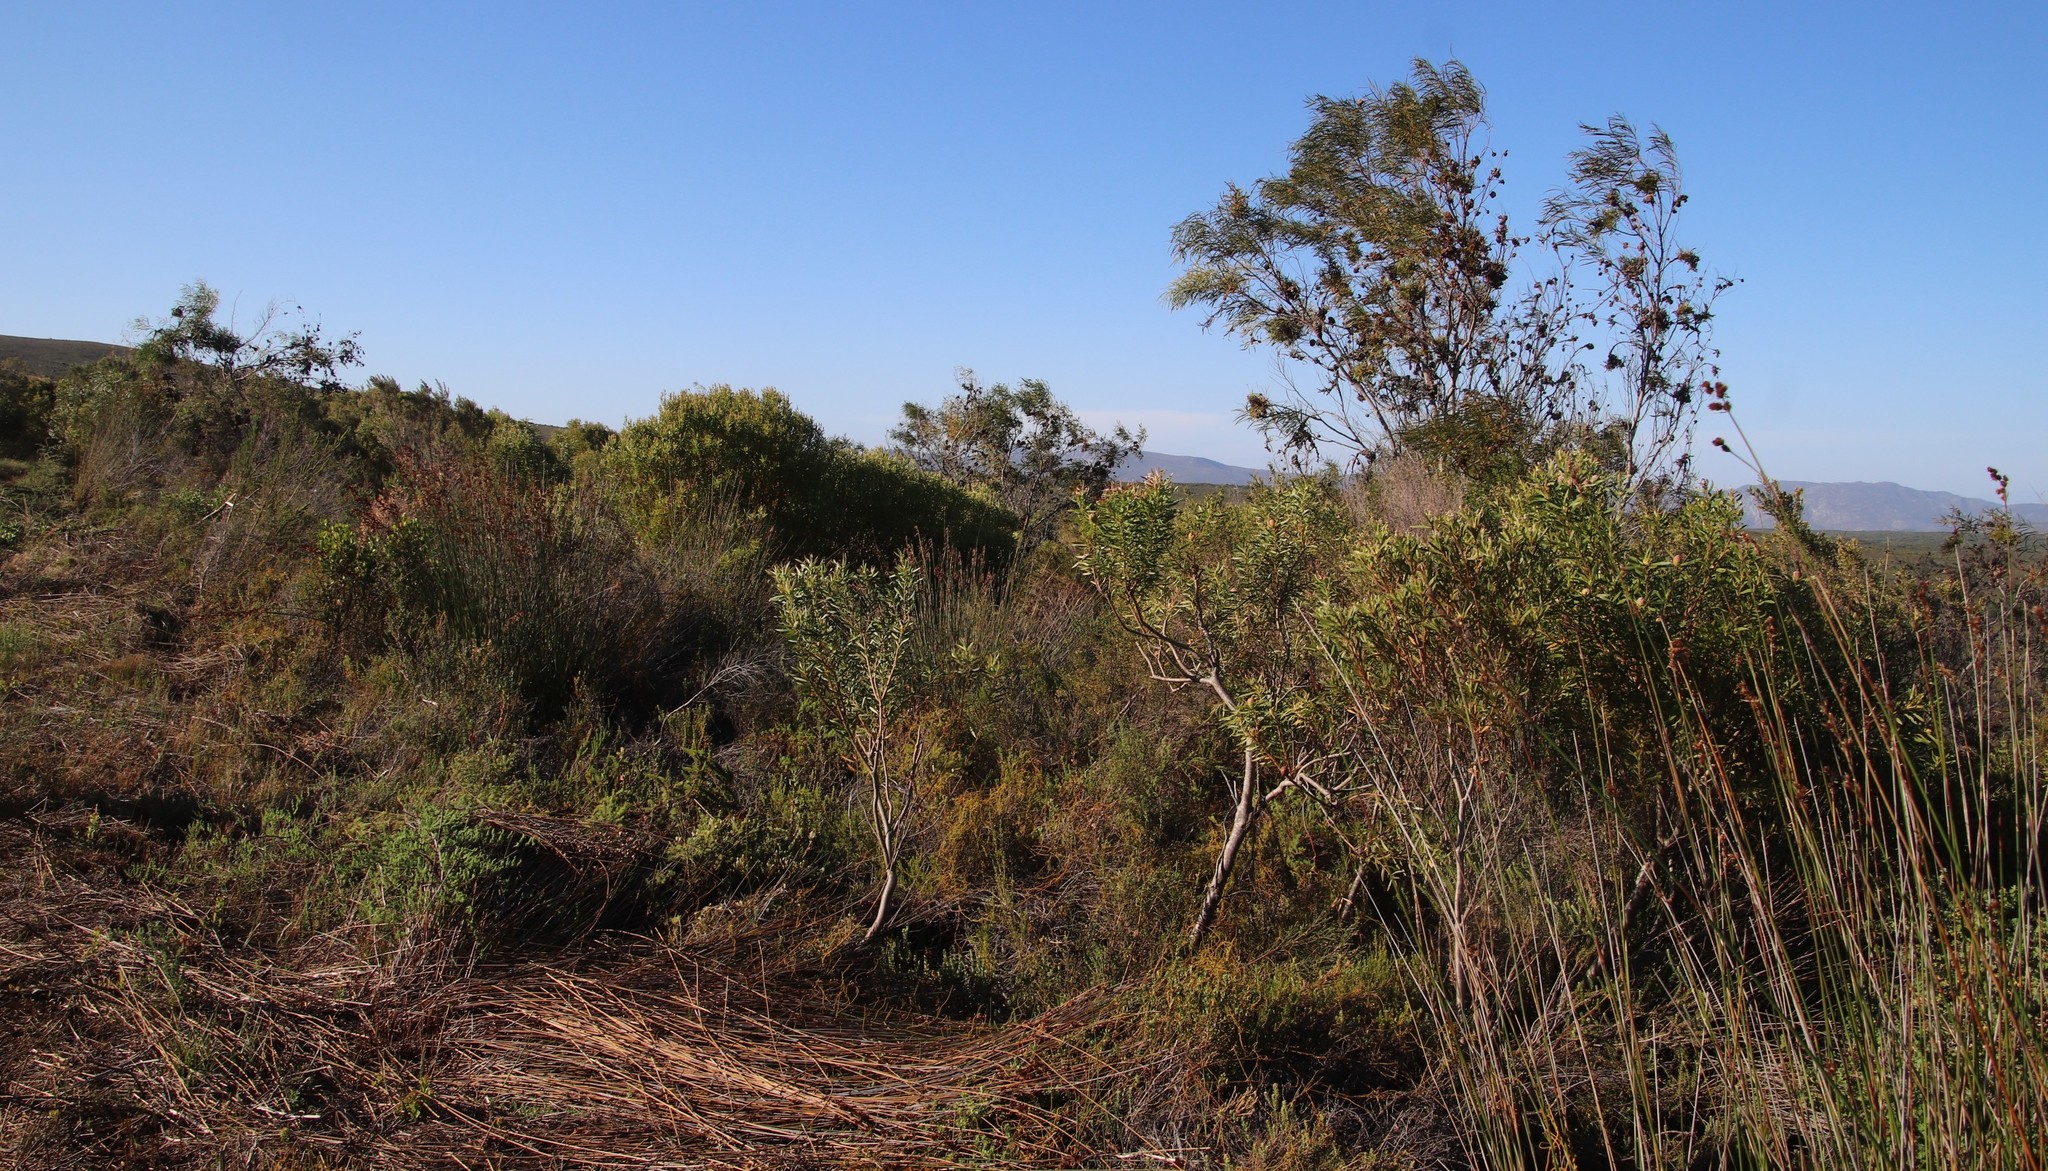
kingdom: Plantae
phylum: Tracheophyta
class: Magnoliopsida
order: Proteales
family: Proteaceae
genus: Leucadendron
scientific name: Leucadendron coniferum
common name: Dune conebush
